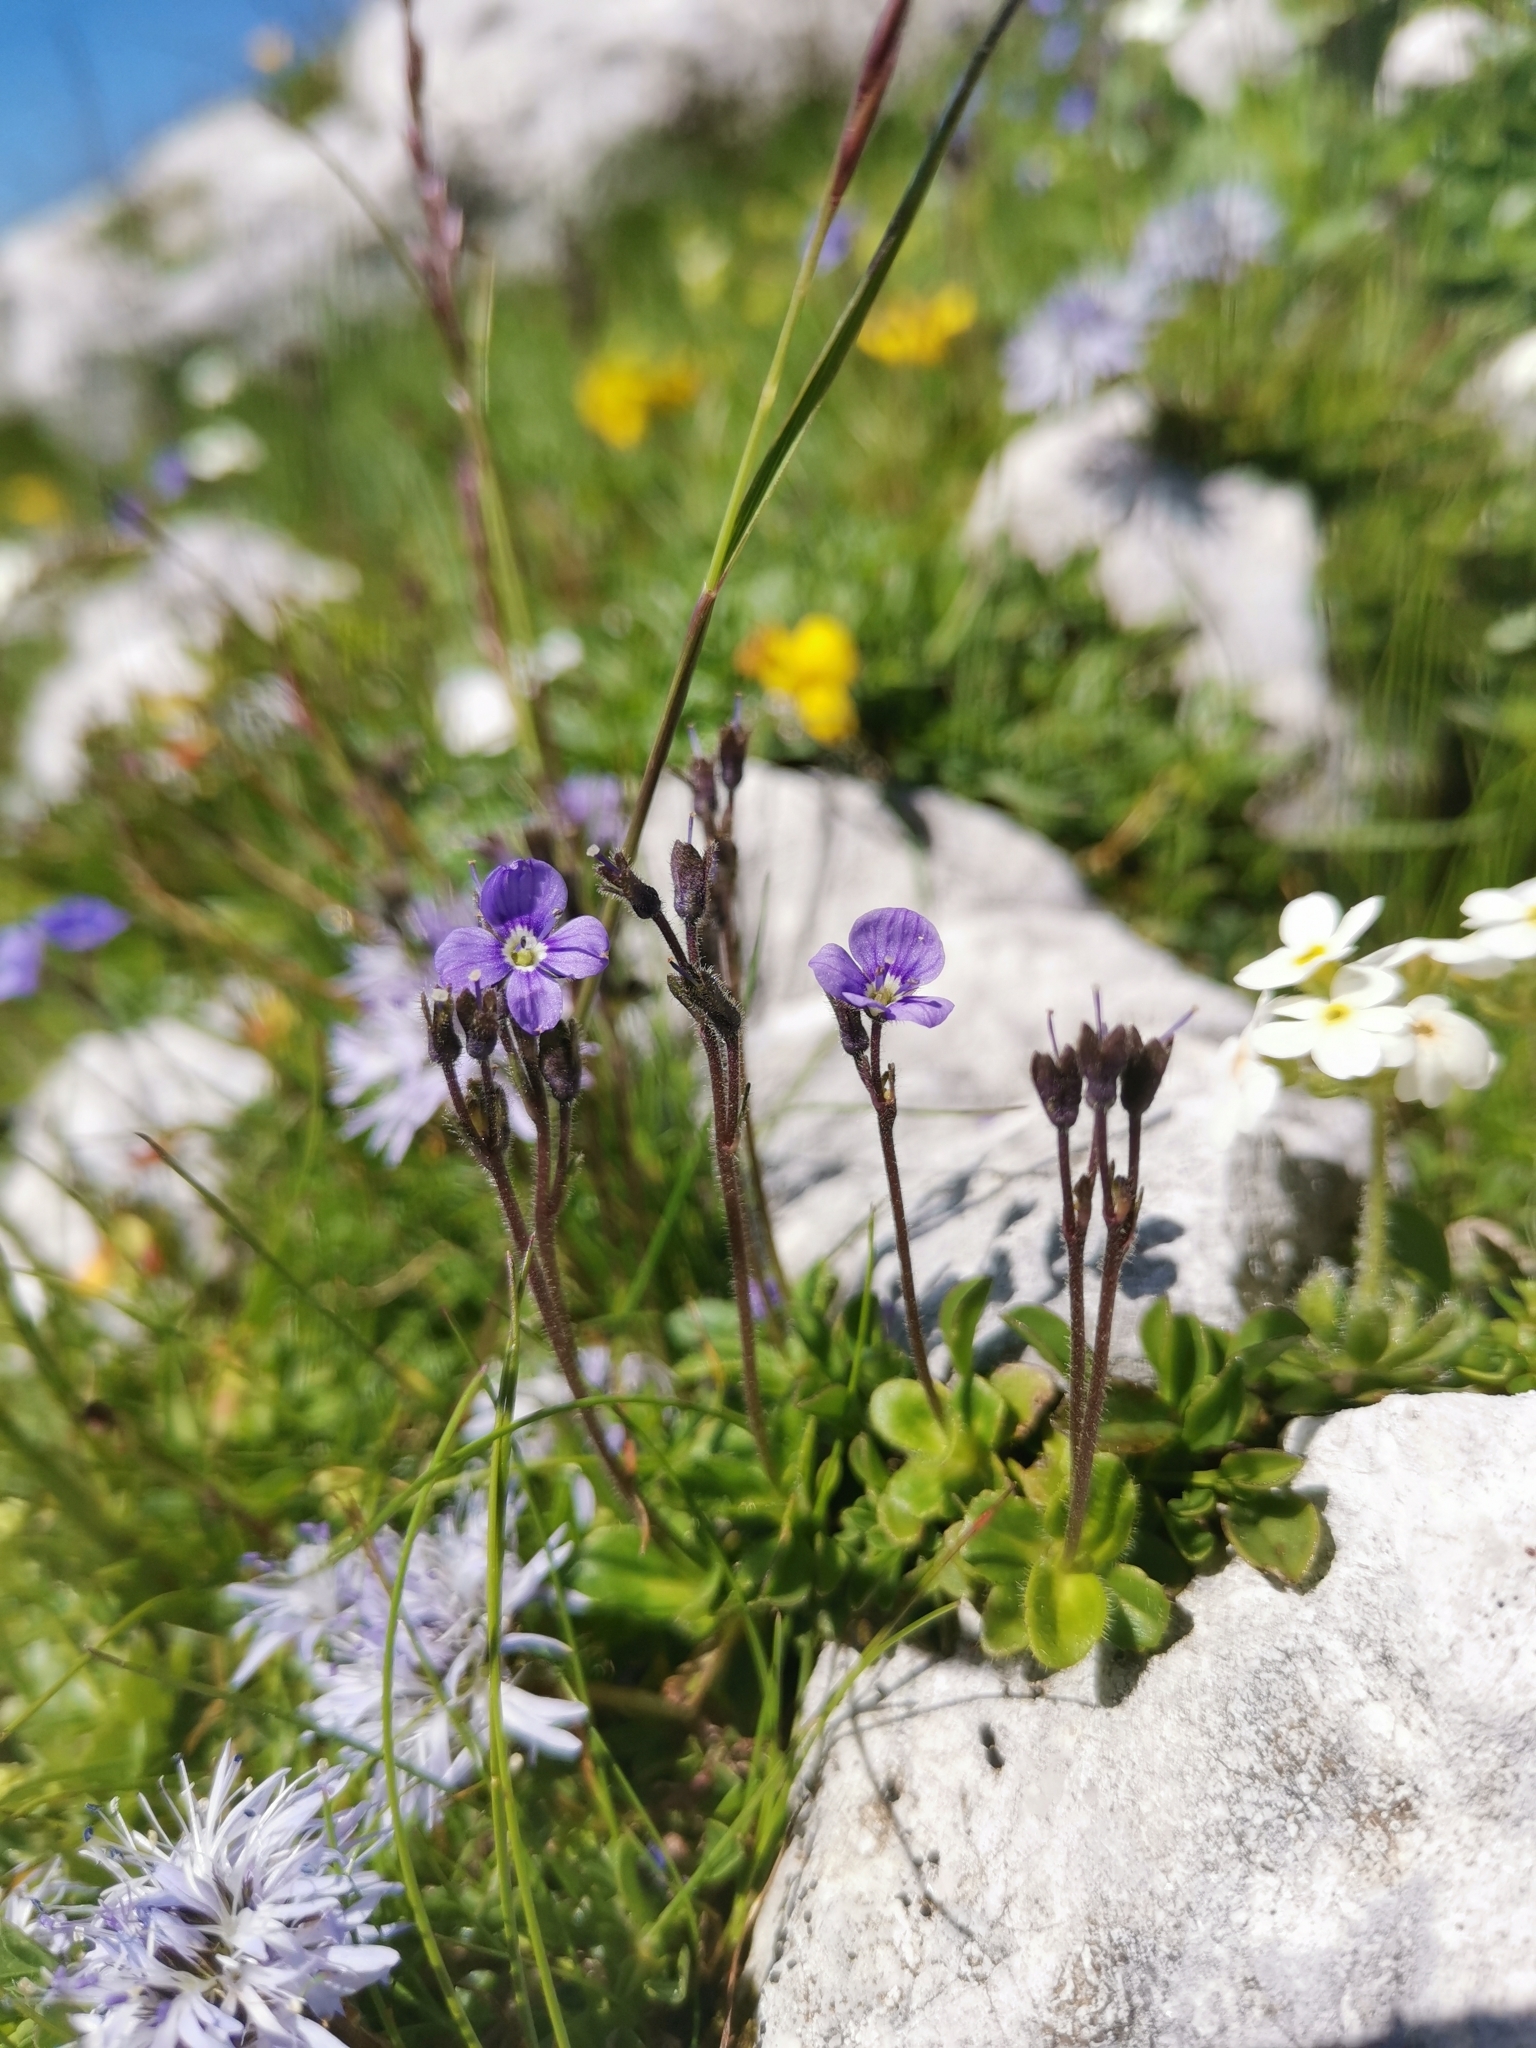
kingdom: Plantae
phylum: Tracheophyta
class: Magnoliopsida
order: Lamiales
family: Plantaginaceae
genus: Veronica
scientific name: Veronica aphylla
